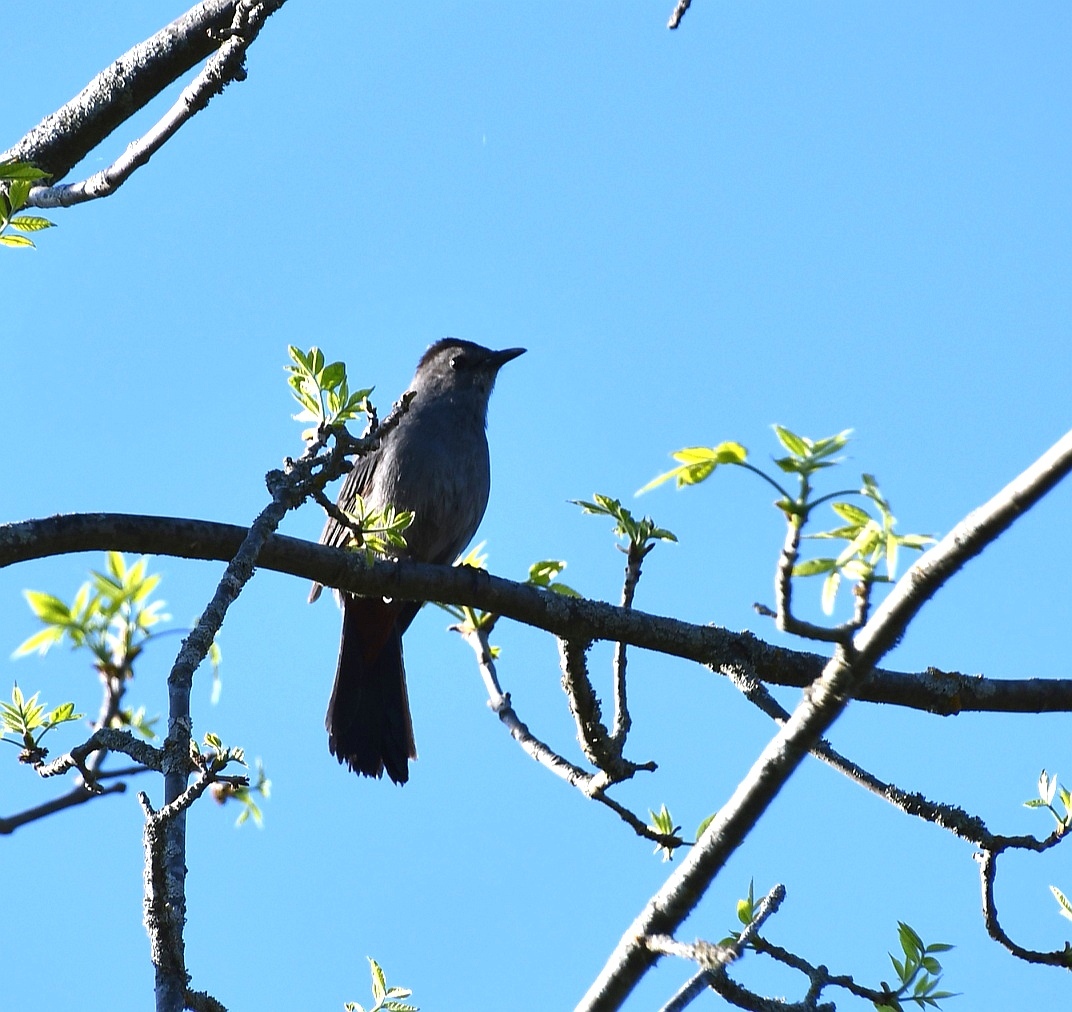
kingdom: Animalia
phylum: Chordata
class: Aves
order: Passeriformes
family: Mimidae
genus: Dumetella
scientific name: Dumetella carolinensis
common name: Gray catbird
